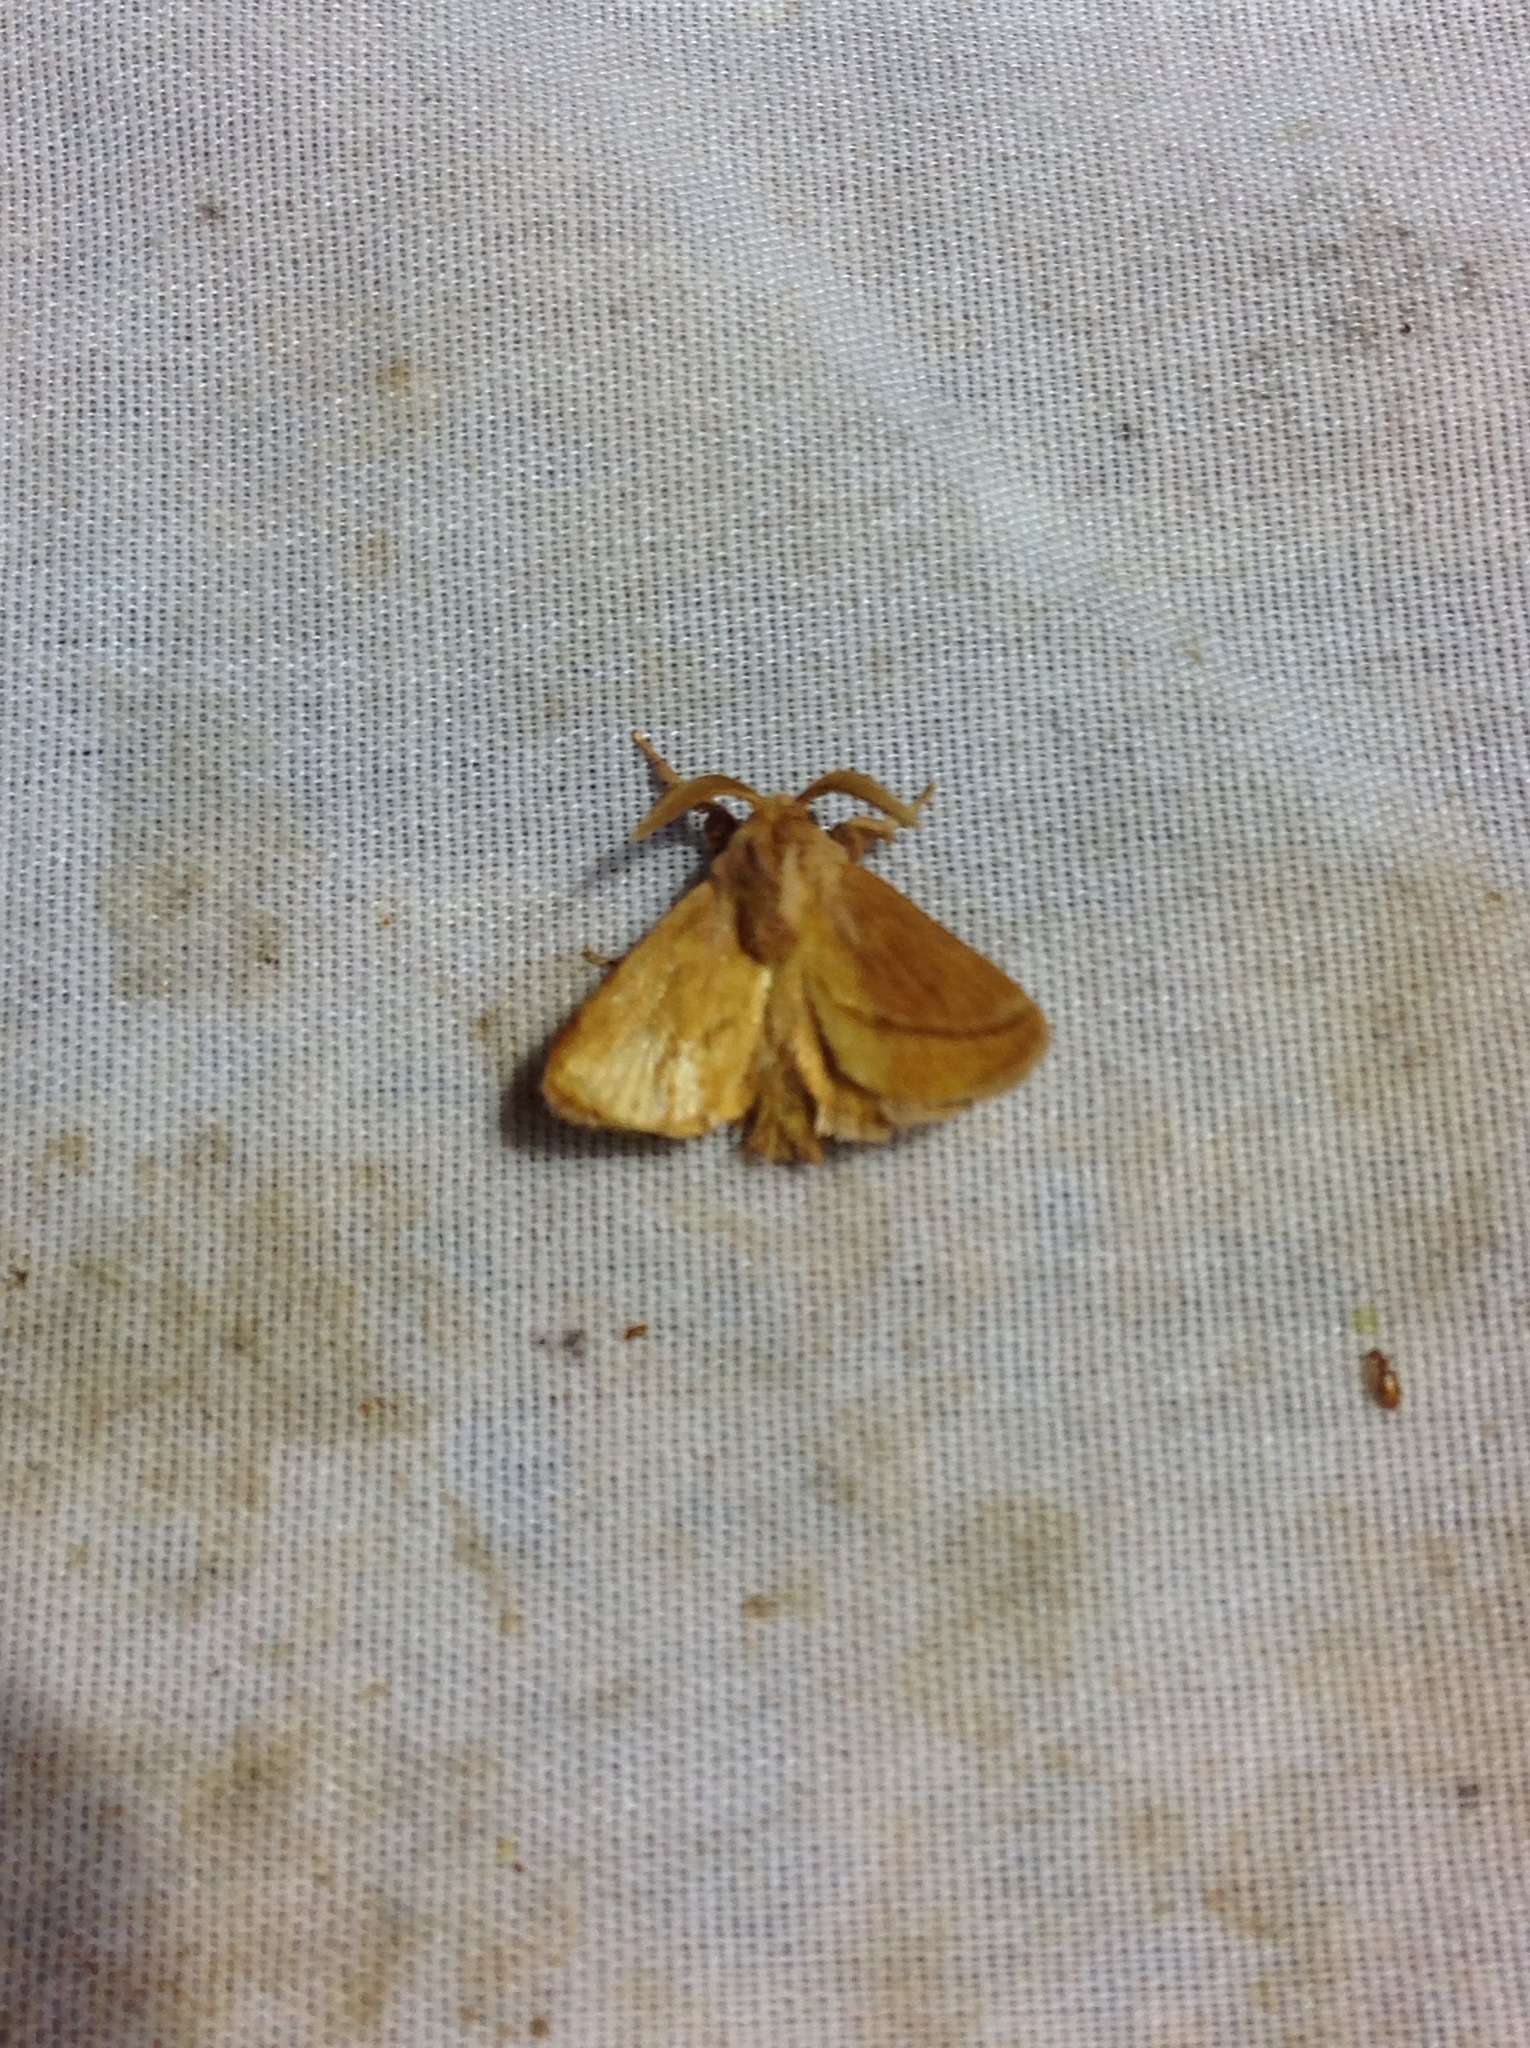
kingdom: Animalia
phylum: Arthropoda
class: Insecta
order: Lepidoptera
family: Limacodidae
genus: Perola
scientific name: Perola clara
